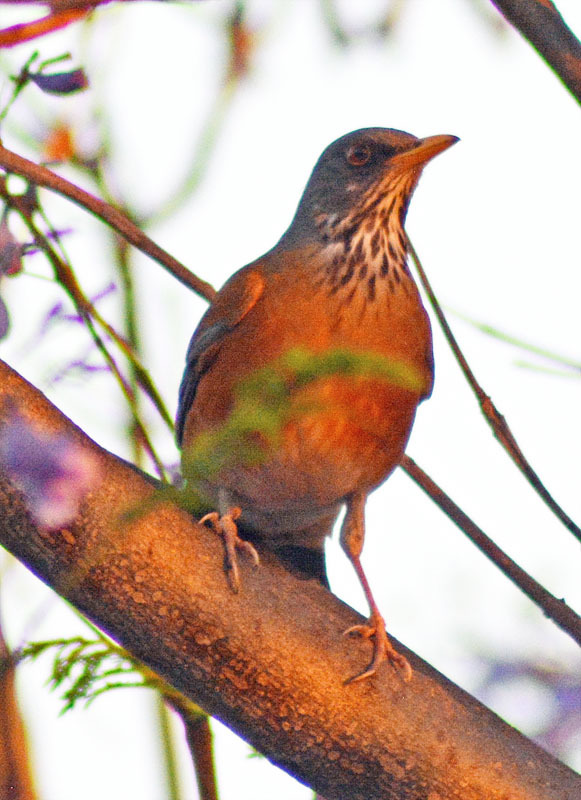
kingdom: Animalia
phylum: Chordata
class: Aves
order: Passeriformes
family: Turdidae
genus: Turdus
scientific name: Turdus rufopalliatus
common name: Rufous-backed robin
